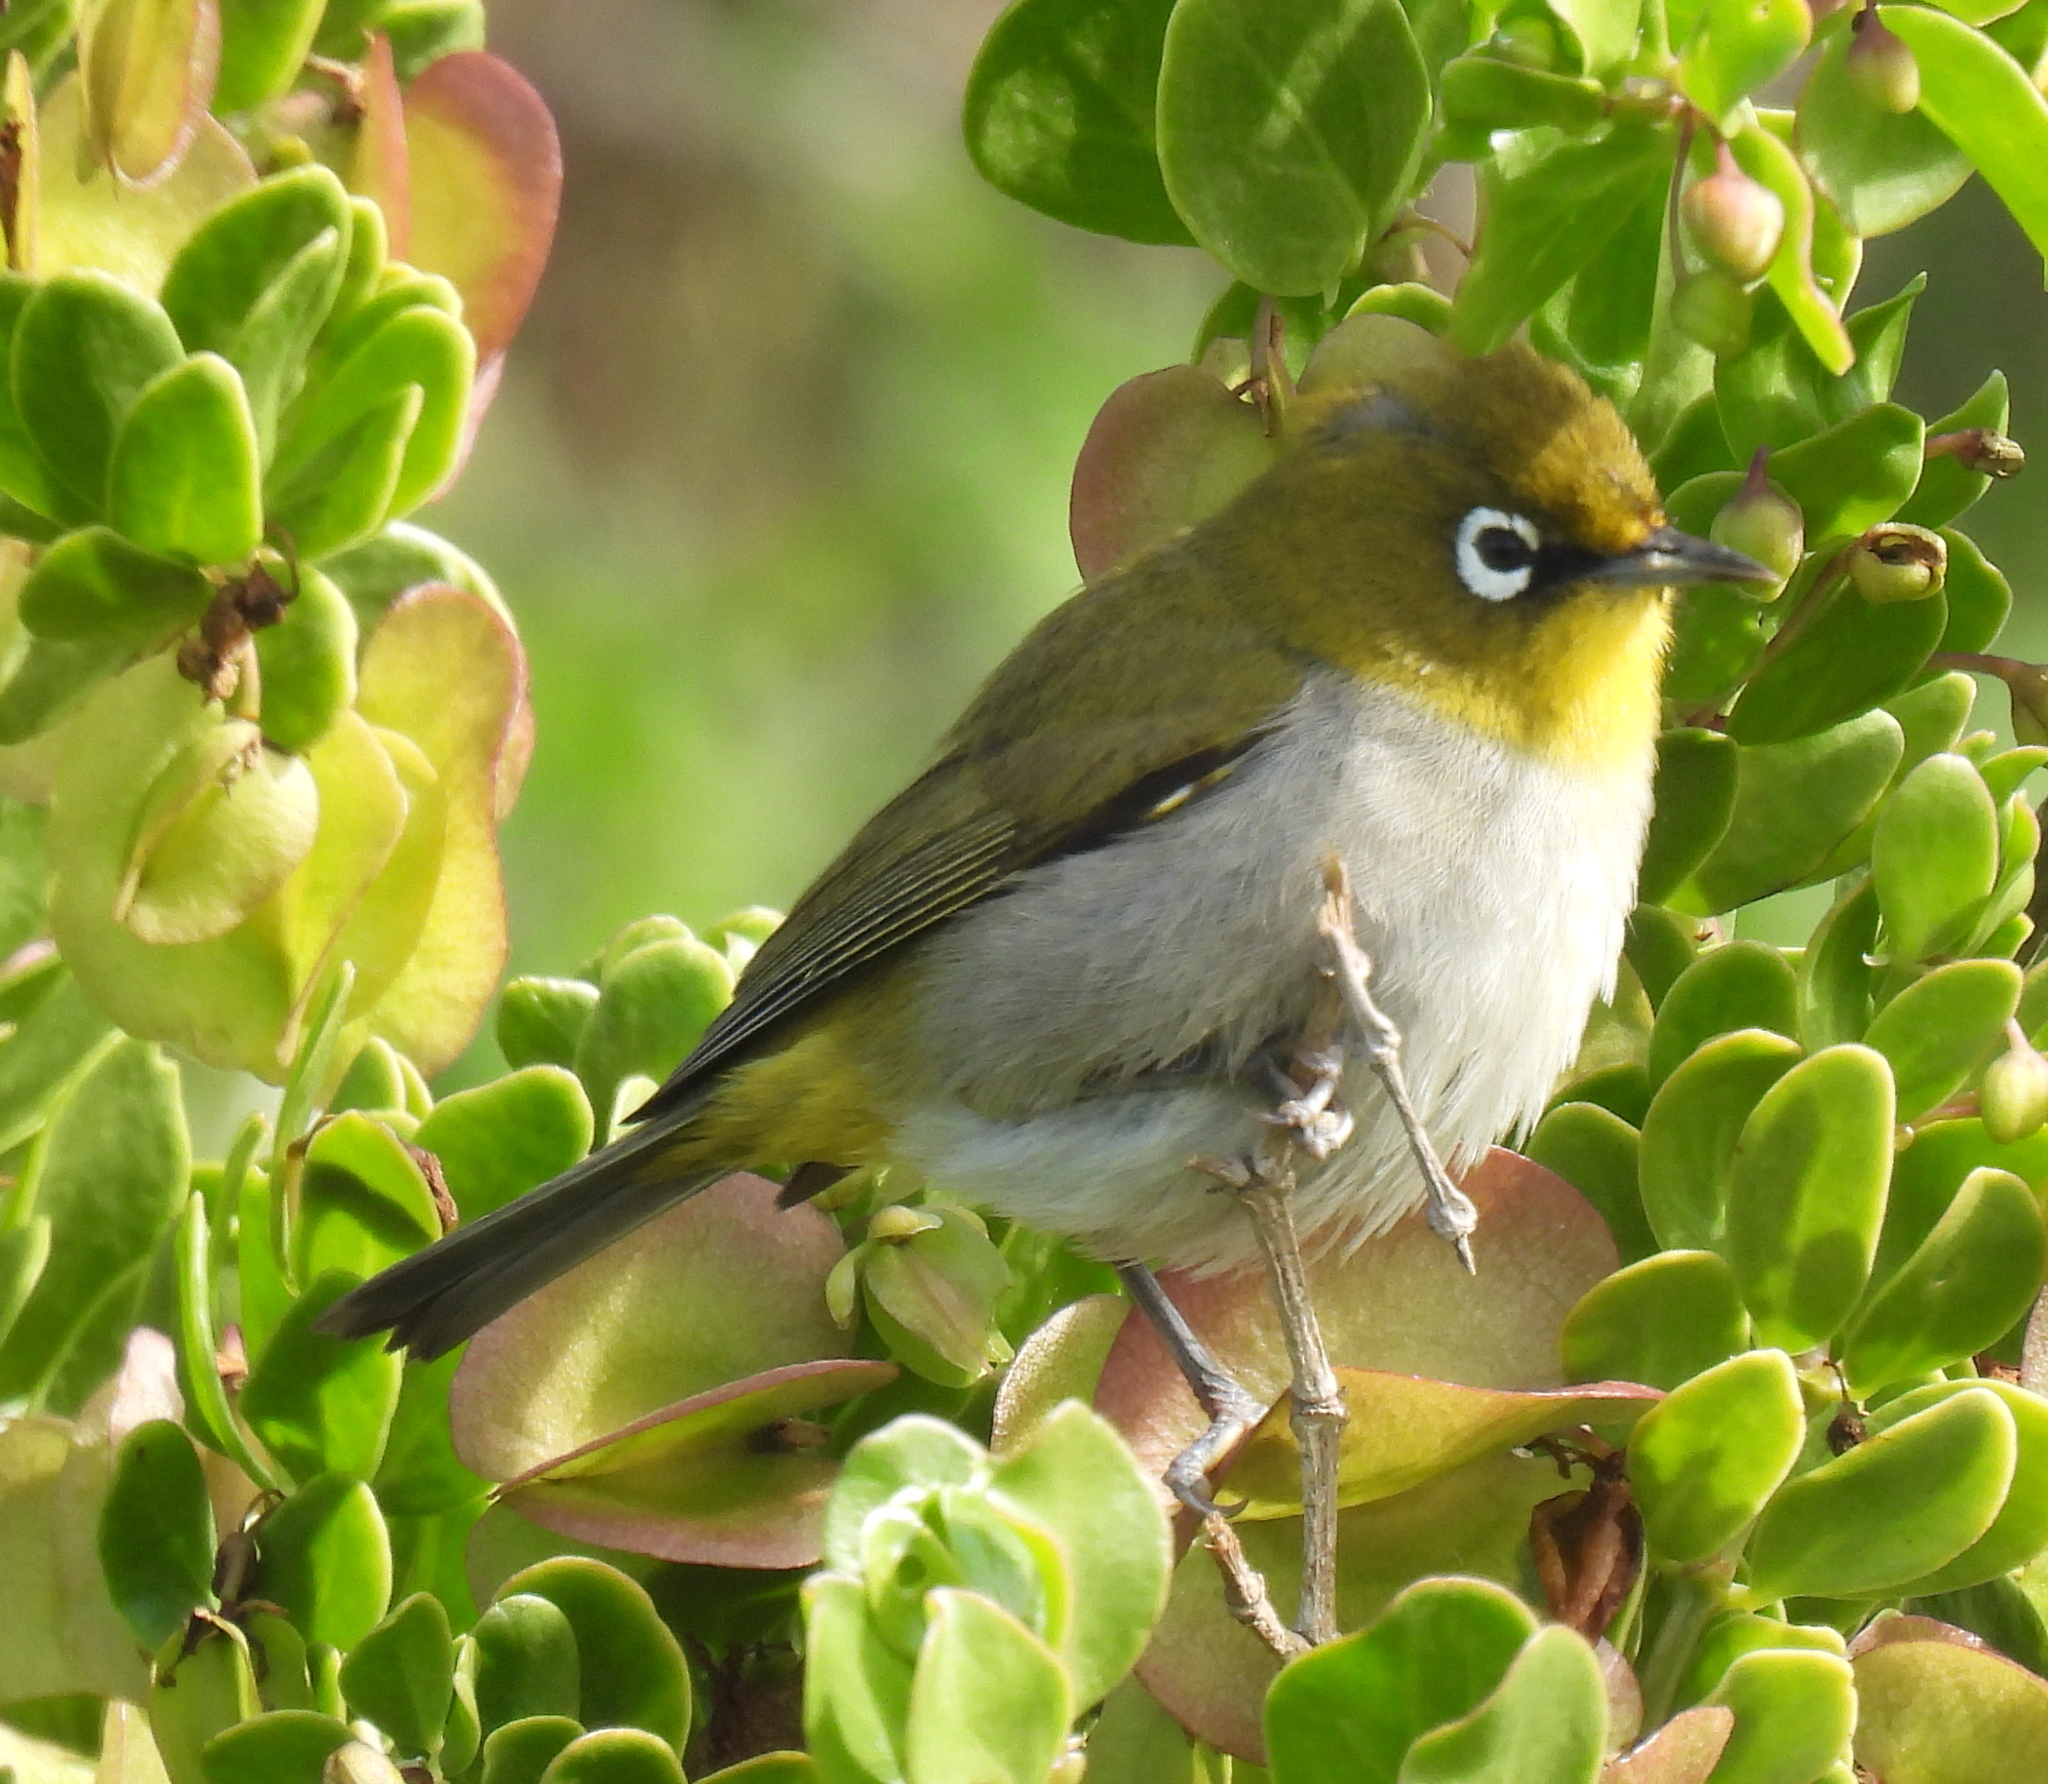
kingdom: Animalia
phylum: Chordata
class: Aves
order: Passeriformes
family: Zosteropidae
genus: Zosterops
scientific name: Zosterops virens
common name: Cape white-eye
